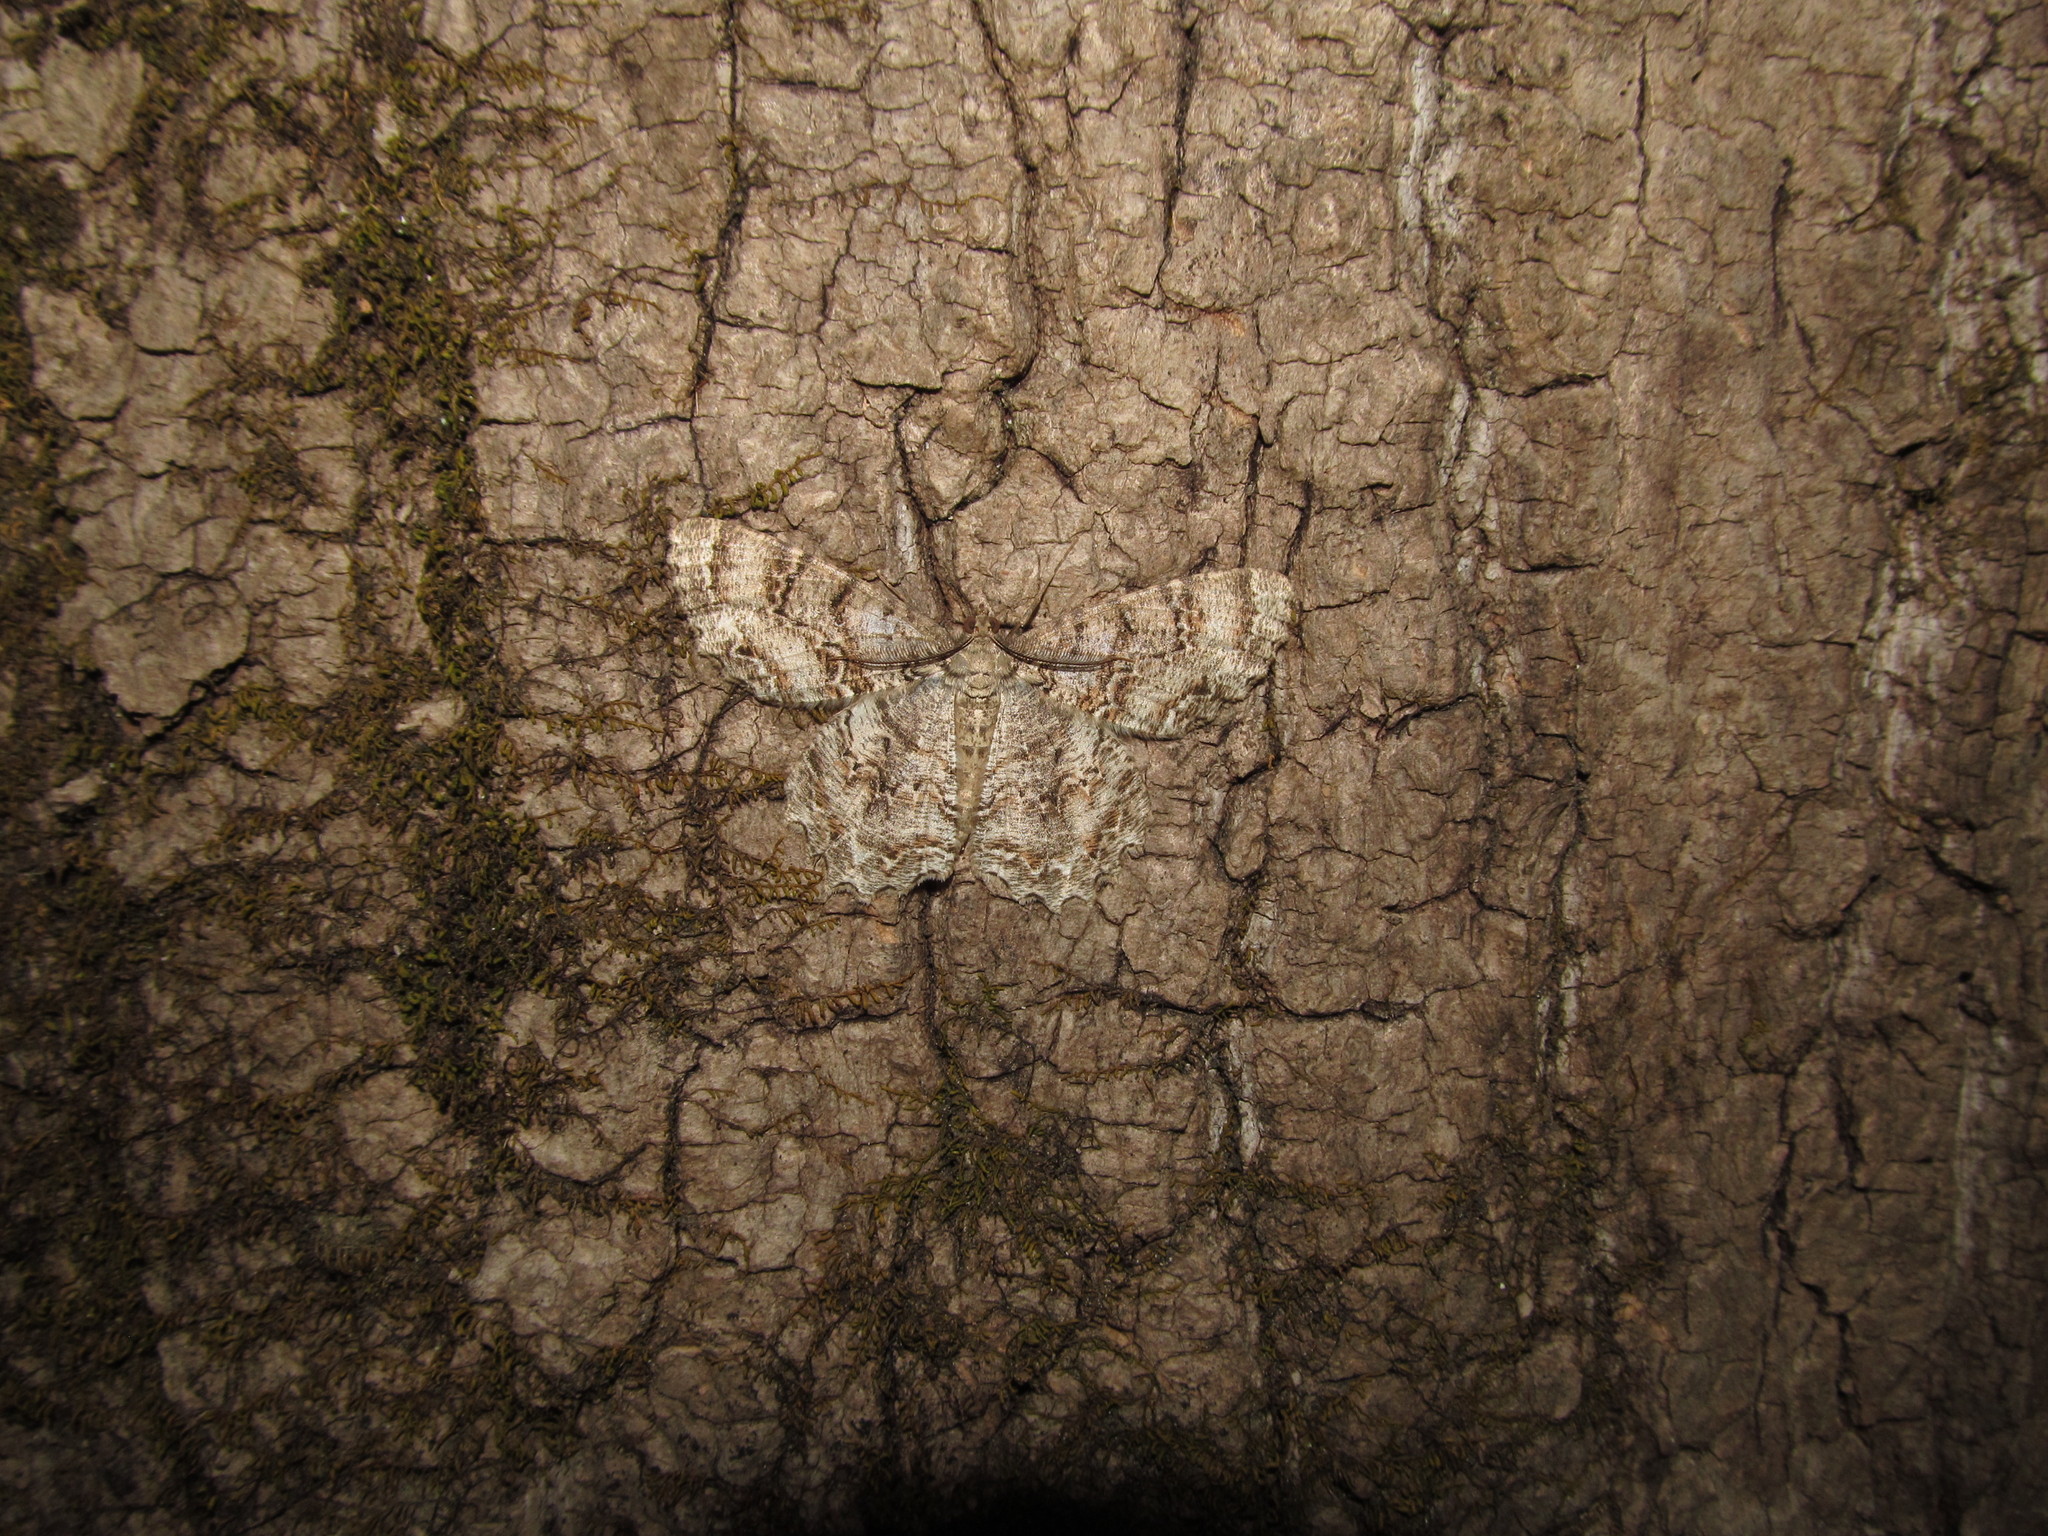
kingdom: Animalia
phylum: Arthropoda
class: Insecta
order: Lepidoptera
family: Geometridae
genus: Epimecis
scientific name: Epimecis hortaria
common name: Tulip-tree beauty
